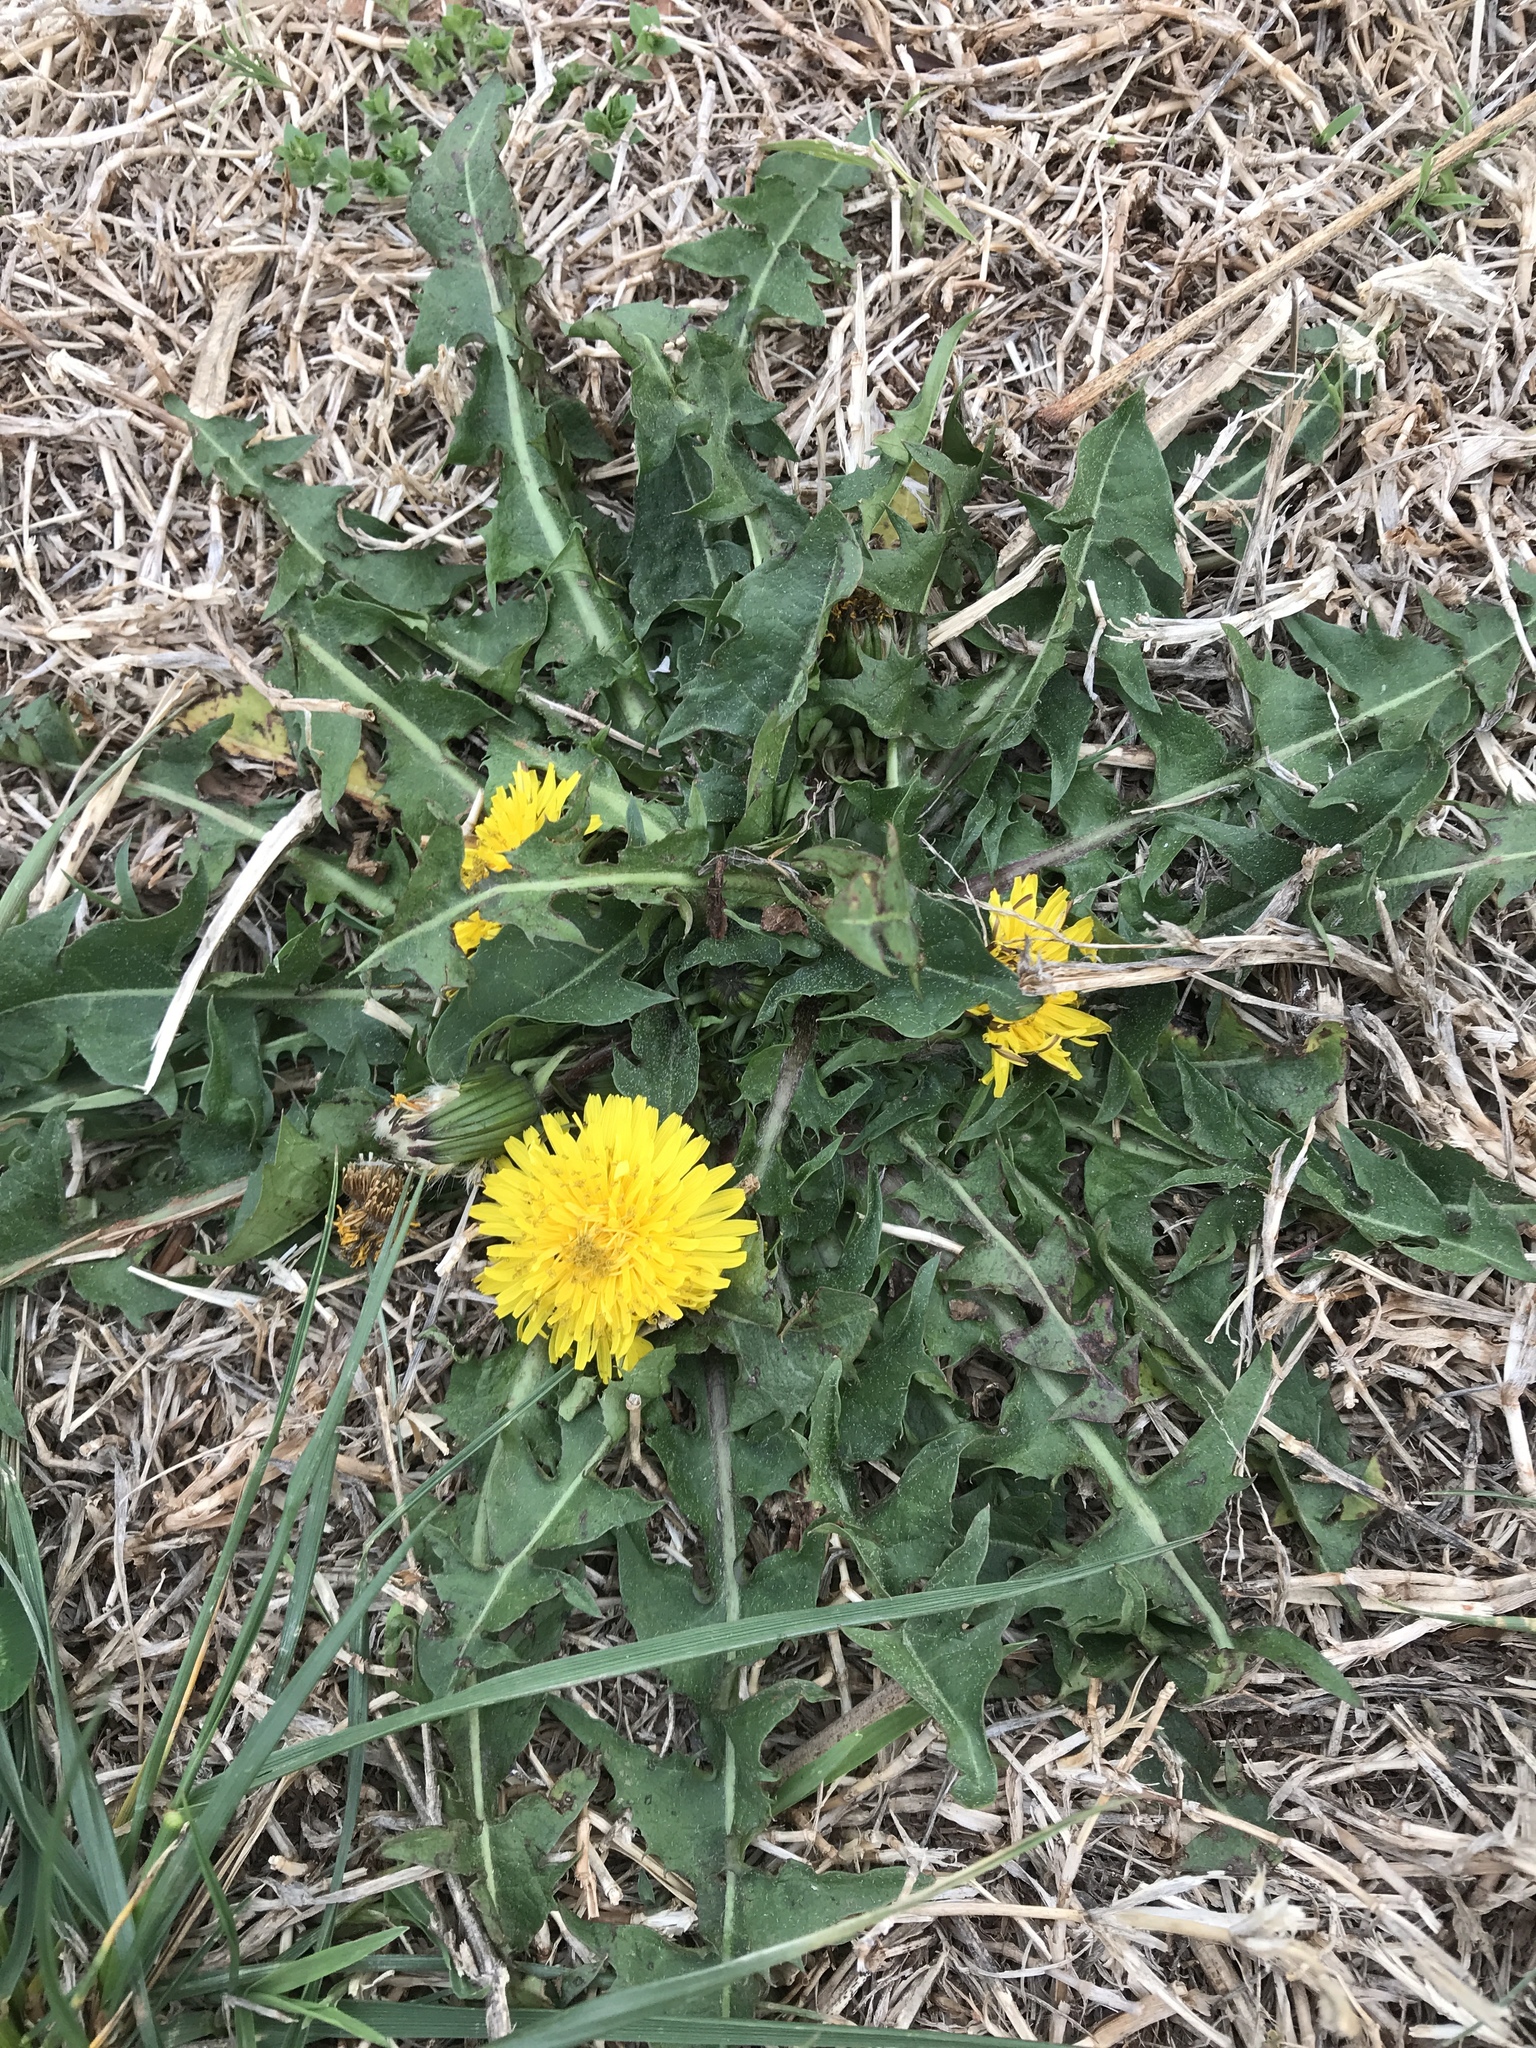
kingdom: Plantae
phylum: Tracheophyta
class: Magnoliopsida
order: Asterales
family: Asteraceae
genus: Taraxacum
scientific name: Taraxacum officinale
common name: Common dandelion
